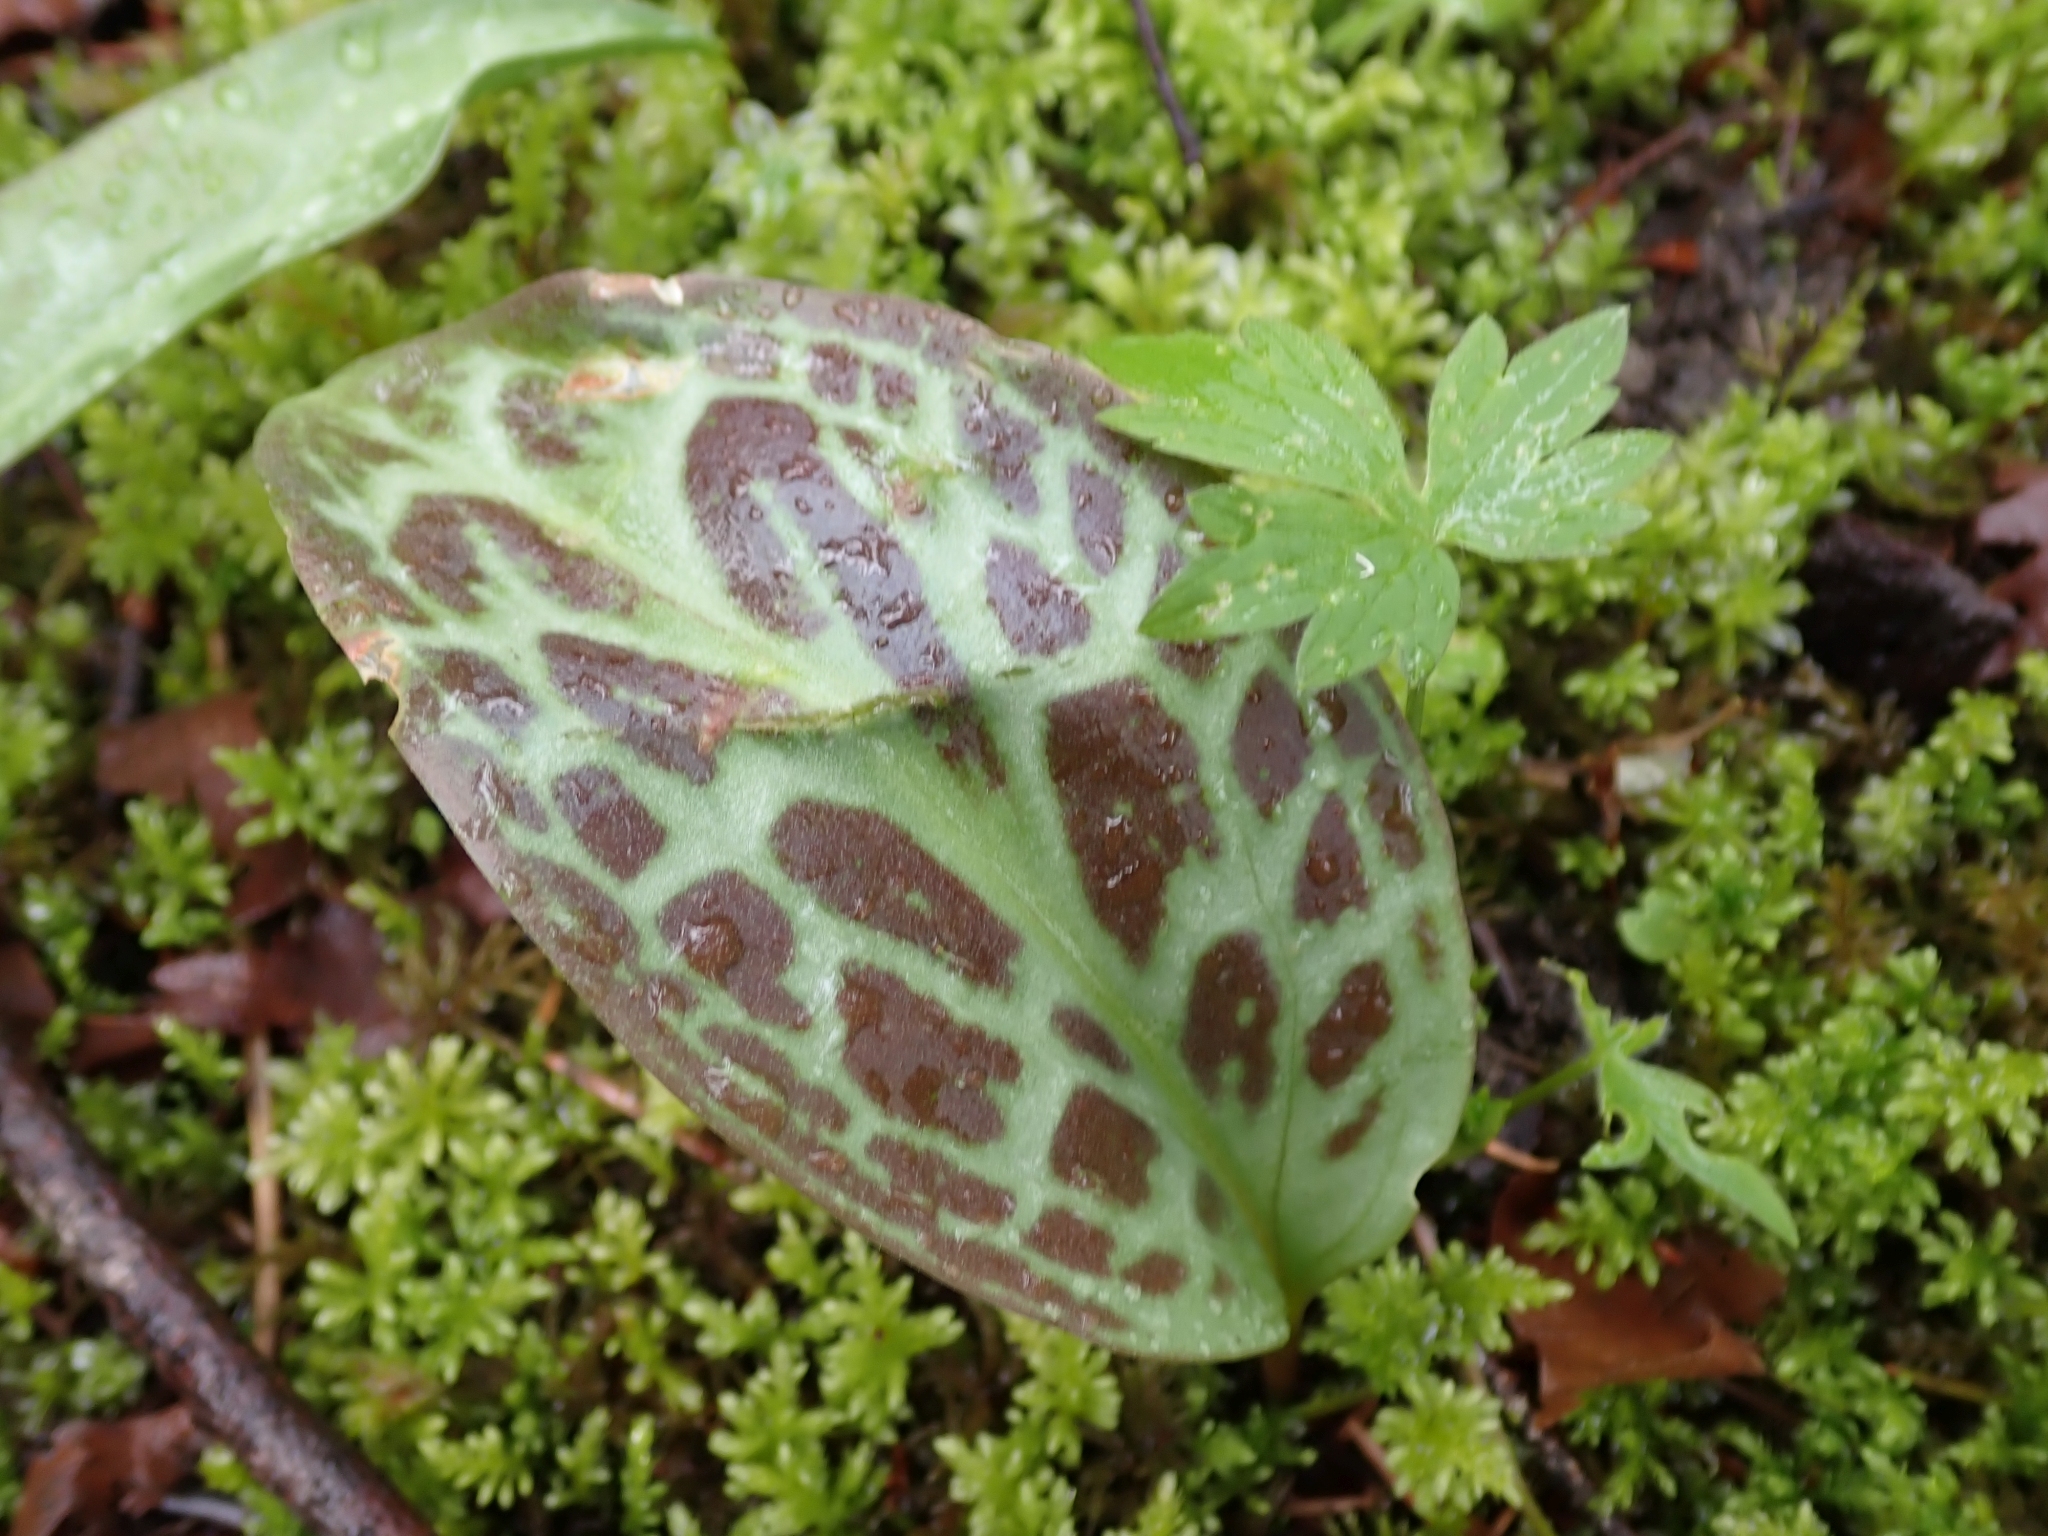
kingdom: Plantae
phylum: Tracheophyta
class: Liliopsida
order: Liliales
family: Liliaceae
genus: Erythronium
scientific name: Erythronium oregonum
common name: Giant adder's-tongue
